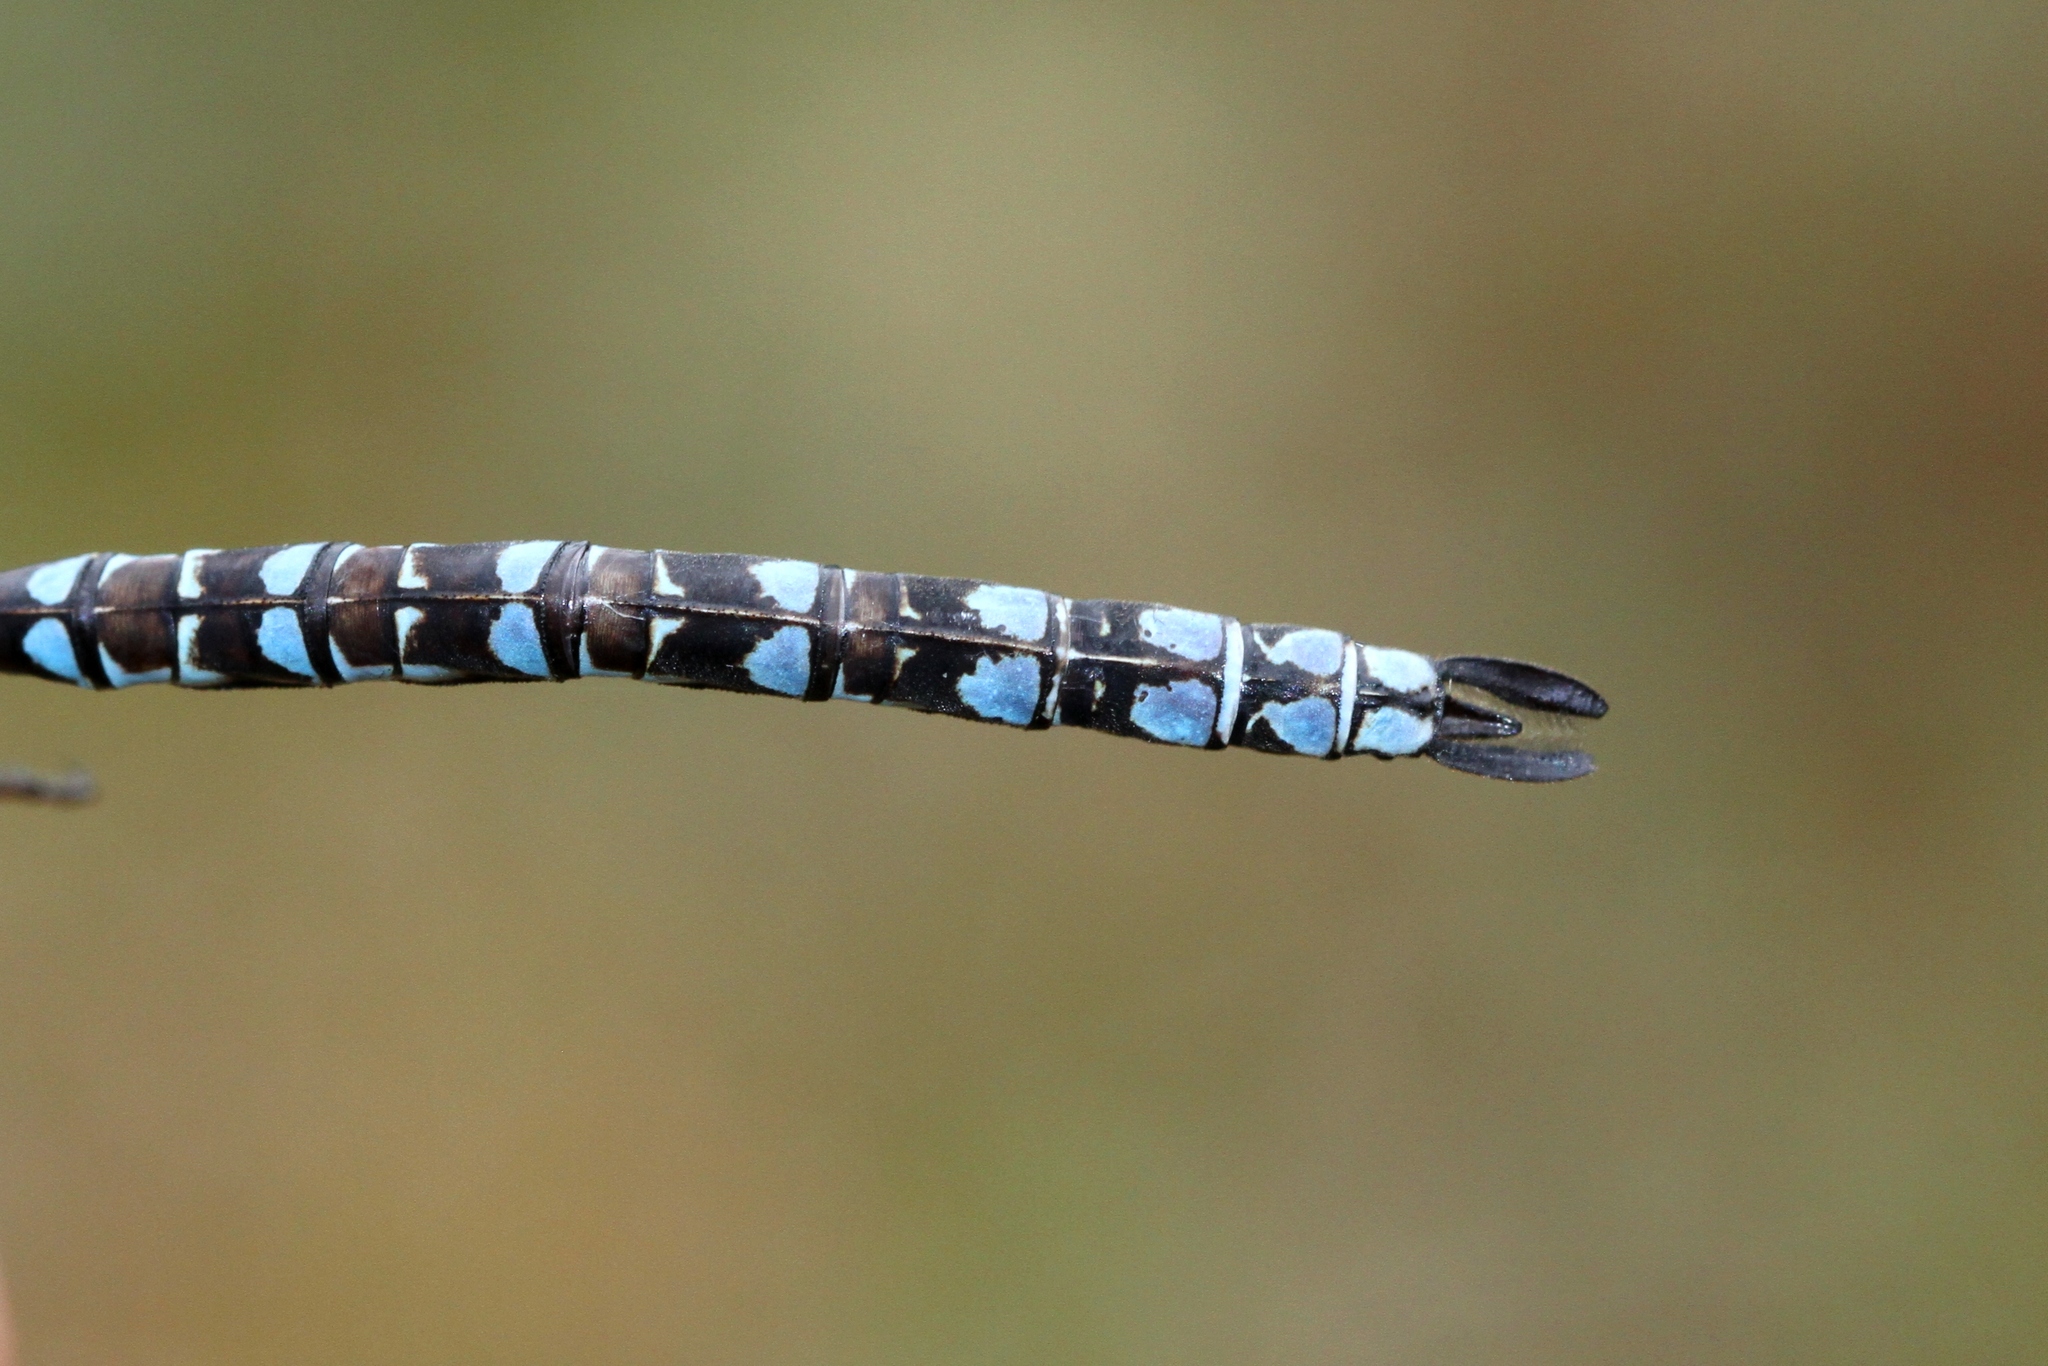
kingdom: Animalia
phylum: Arthropoda
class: Insecta
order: Odonata
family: Aeshnidae
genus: Aeshna
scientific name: Aeshna sitchensis
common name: Zigzag darner
